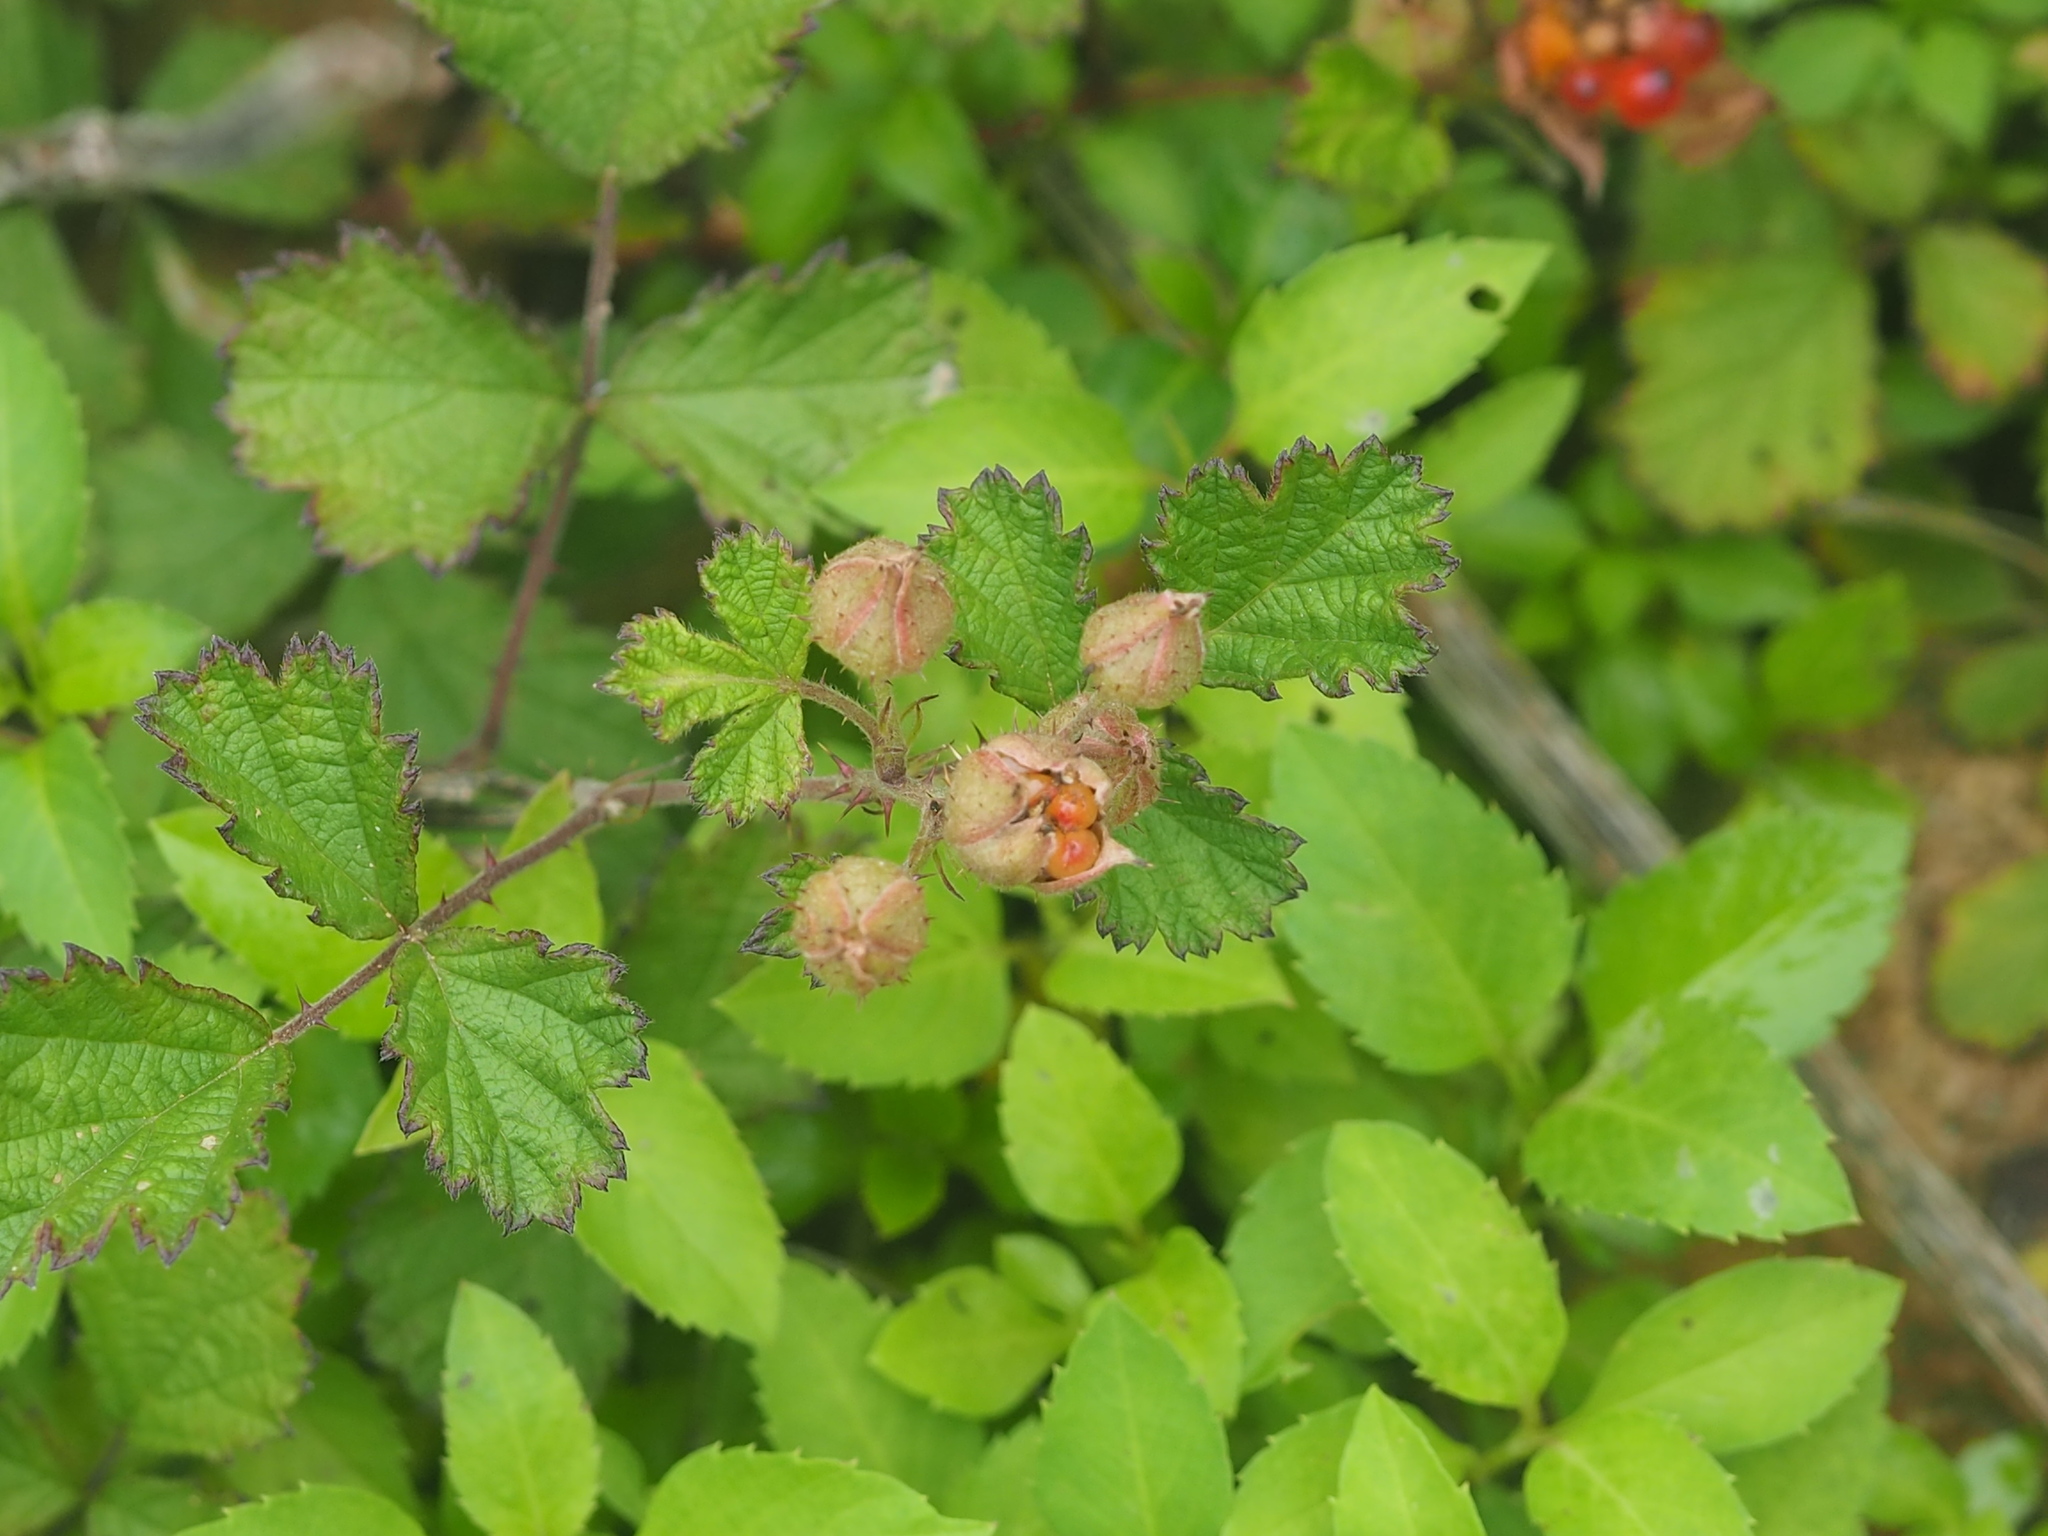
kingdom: Plantae
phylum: Tracheophyta
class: Magnoliopsida
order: Rosales
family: Rosaceae
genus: Rubus
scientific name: Rubus parvifolius
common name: Threeleaf blackberry
